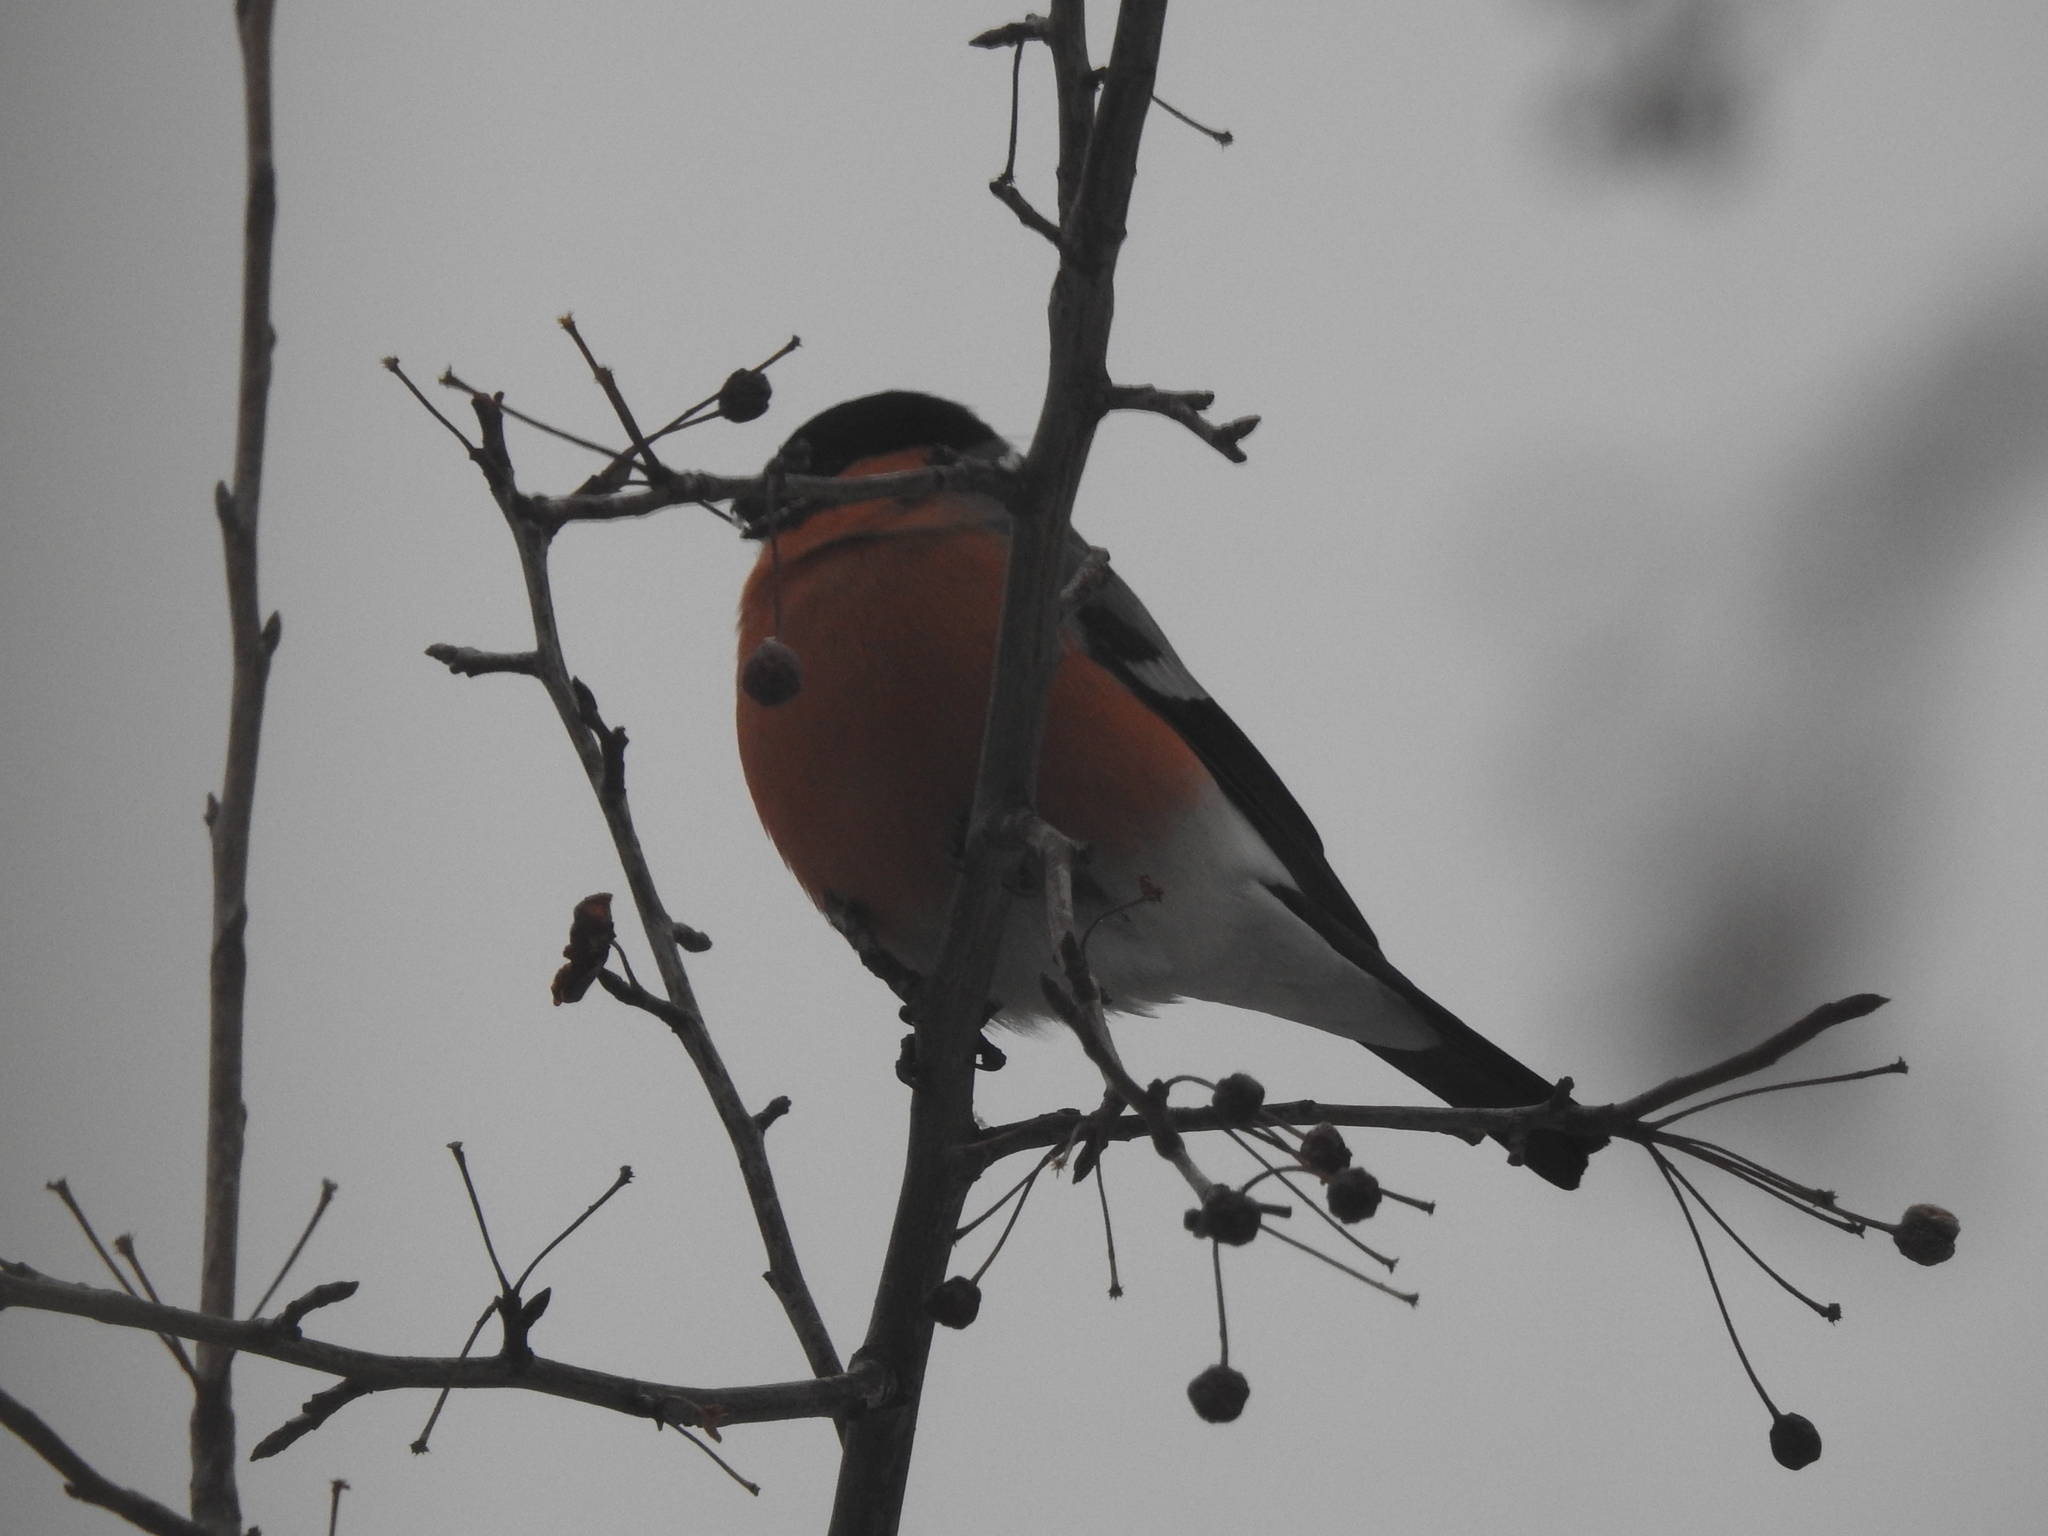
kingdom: Animalia
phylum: Chordata
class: Aves
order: Passeriformes
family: Fringillidae
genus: Pyrrhula
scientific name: Pyrrhula pyrrhula
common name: Eurasian bullfinch
